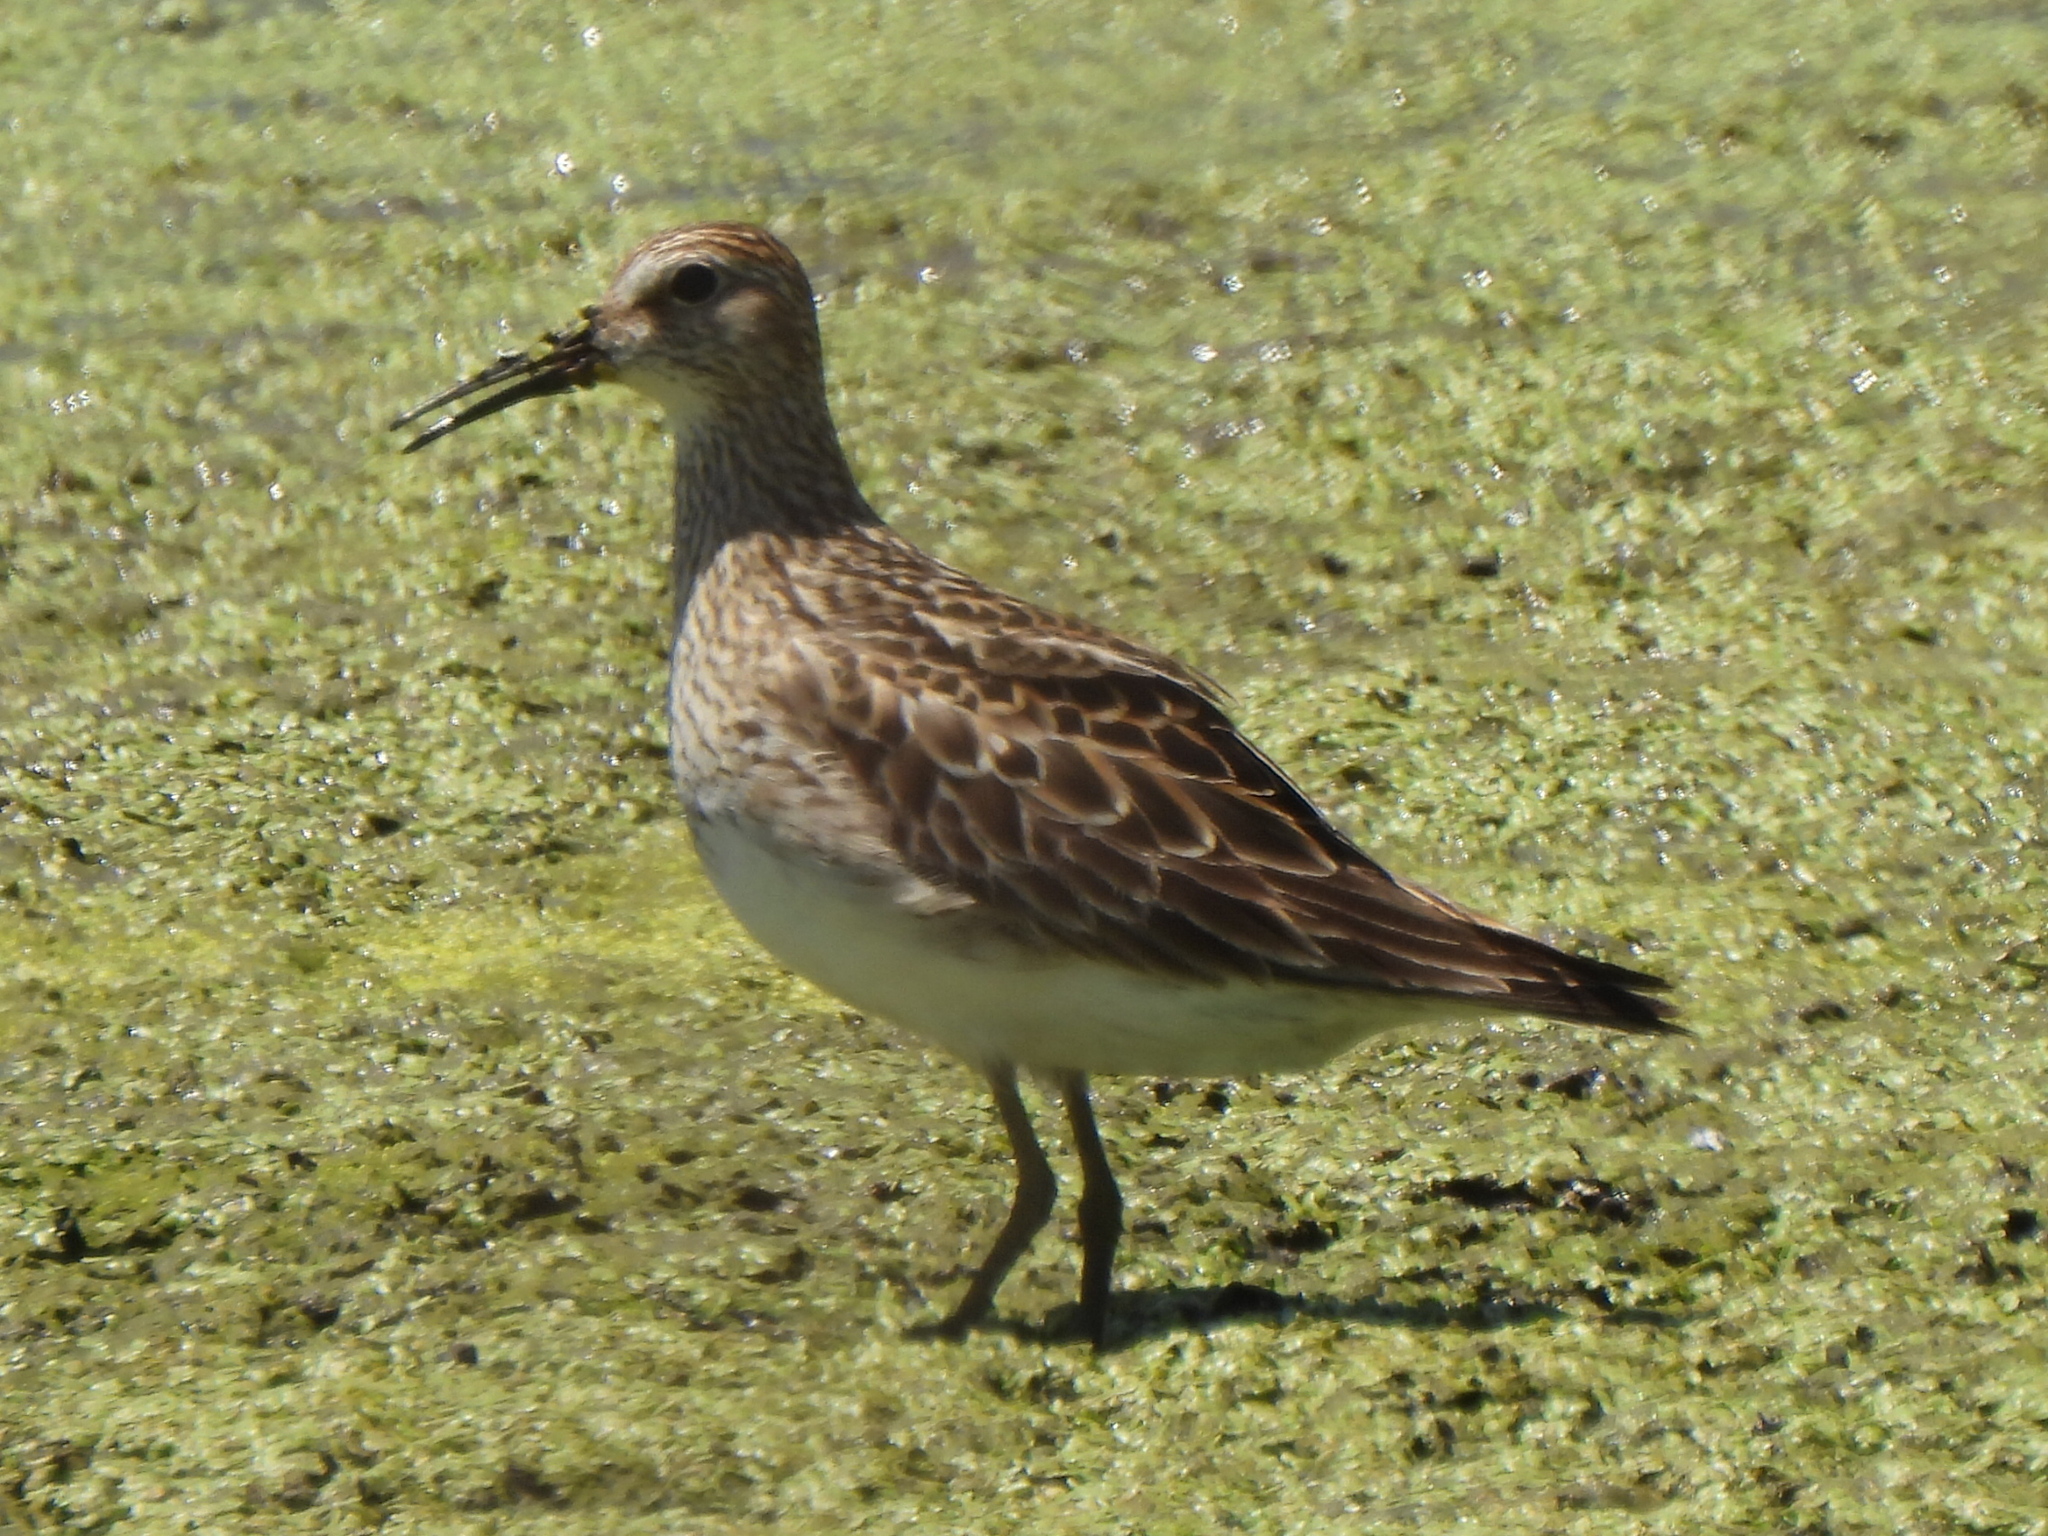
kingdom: Animalia
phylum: Chordata
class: Aves
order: Charadriiformes
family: Scolopacidae
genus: Calidris
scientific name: Calidris melanotos
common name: Pectoral sandpiper
